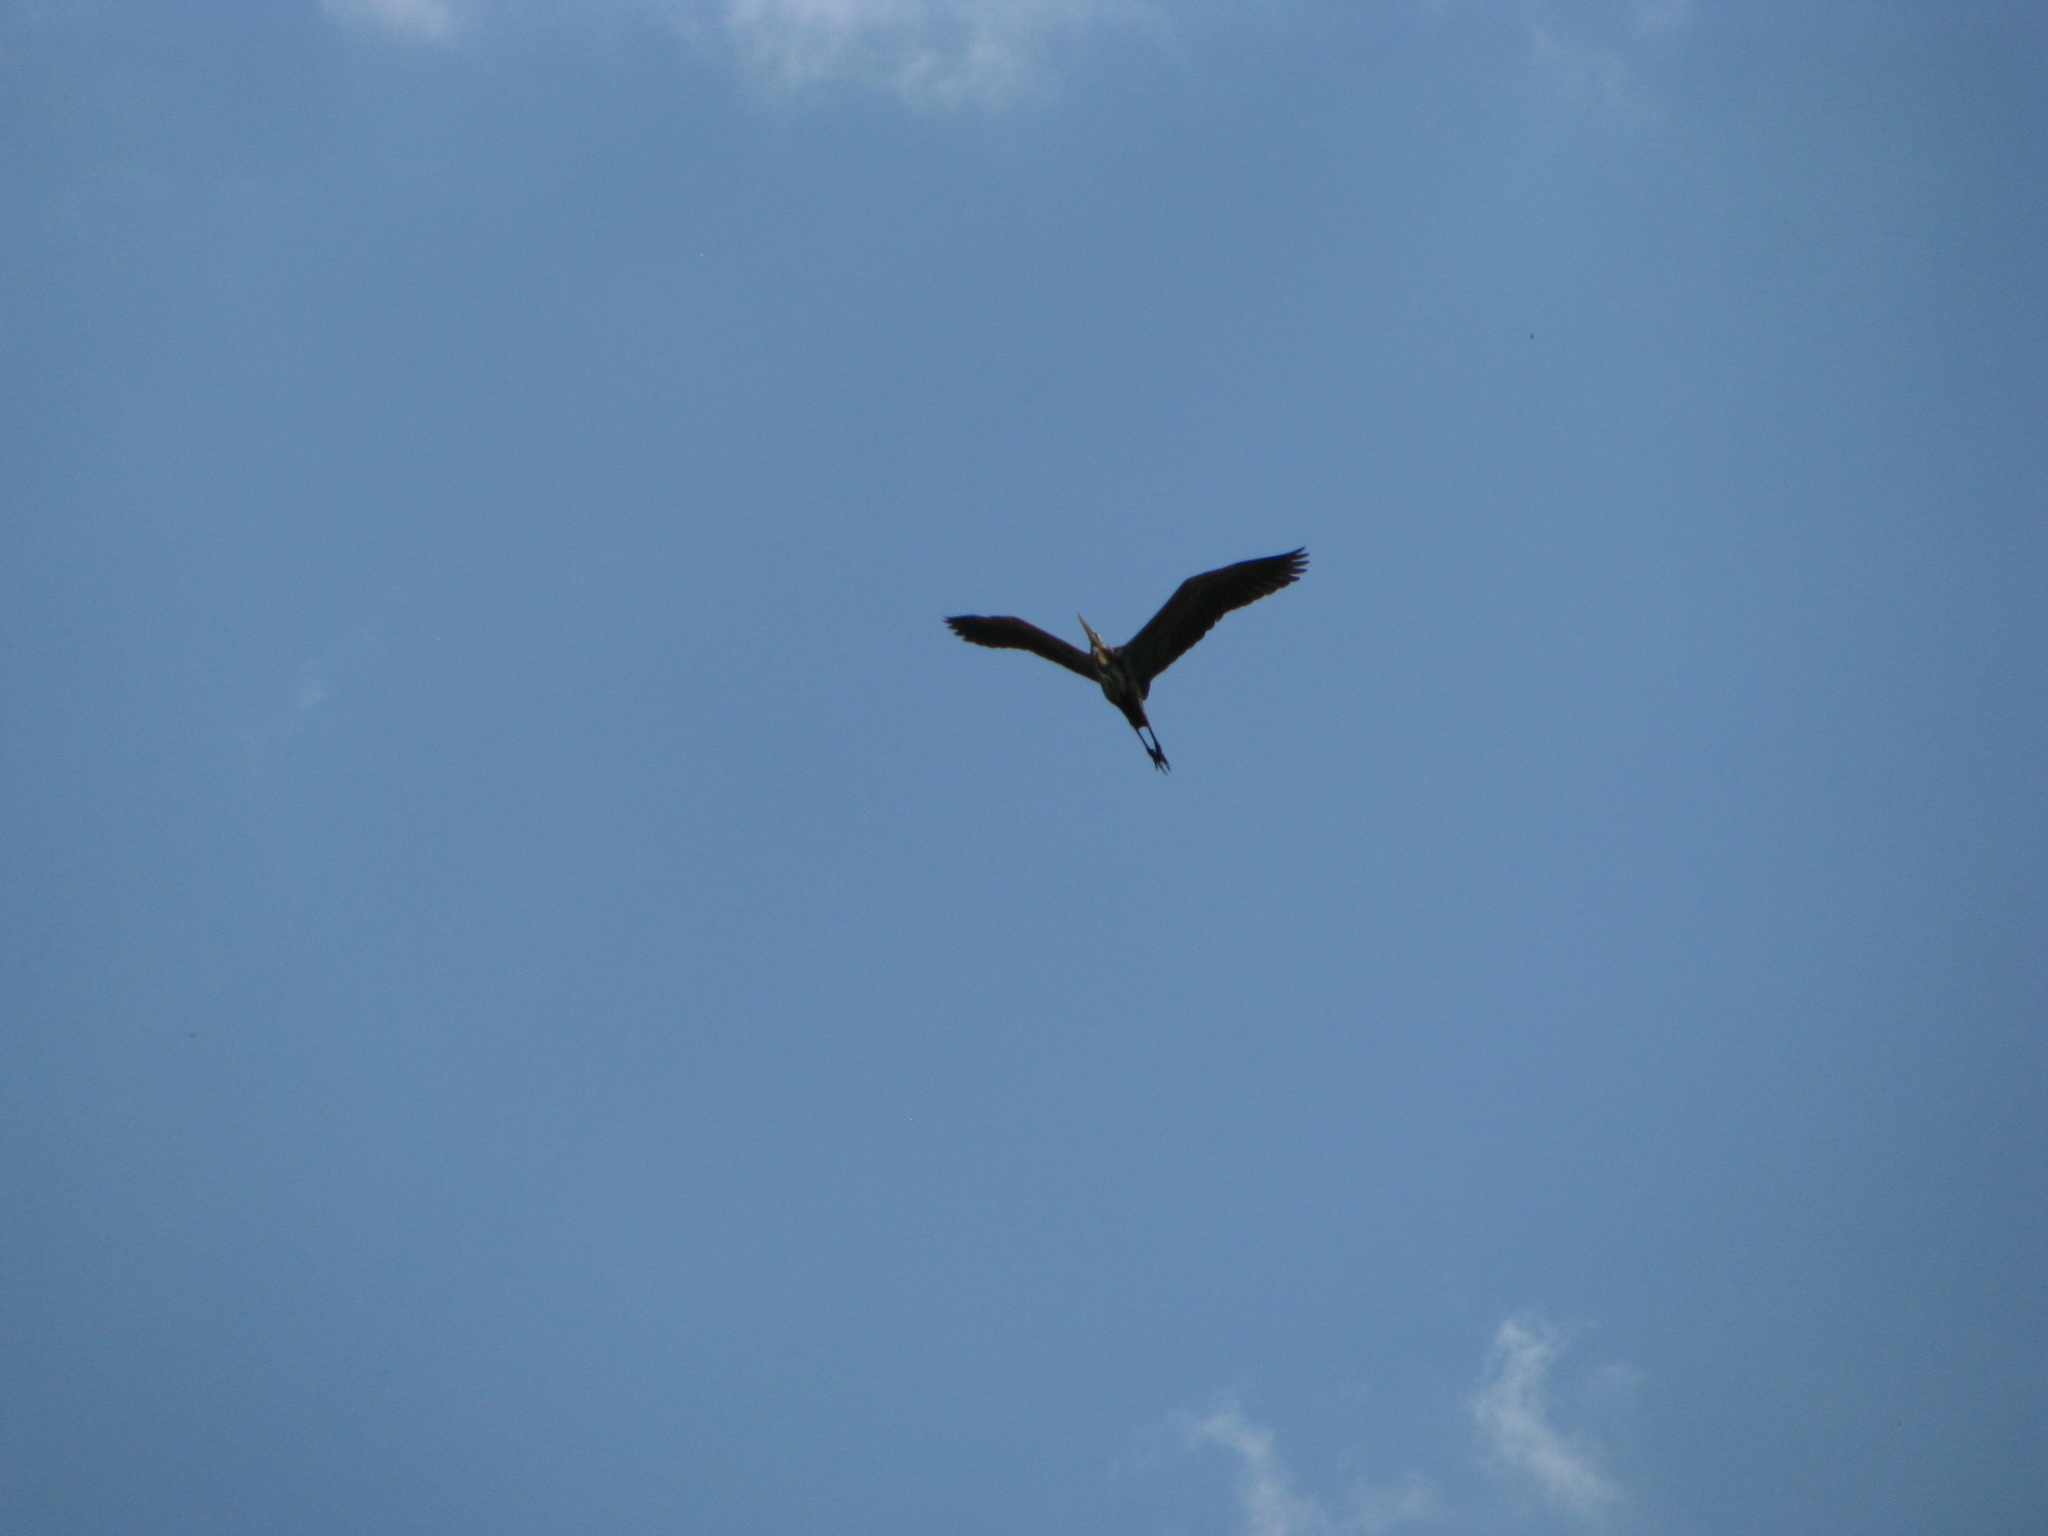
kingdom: Animalia
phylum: Chordata
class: Aves
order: Pelecaniformes
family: Ardeidae
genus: Ardea
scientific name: Ardea purpurea
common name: Purple heron
